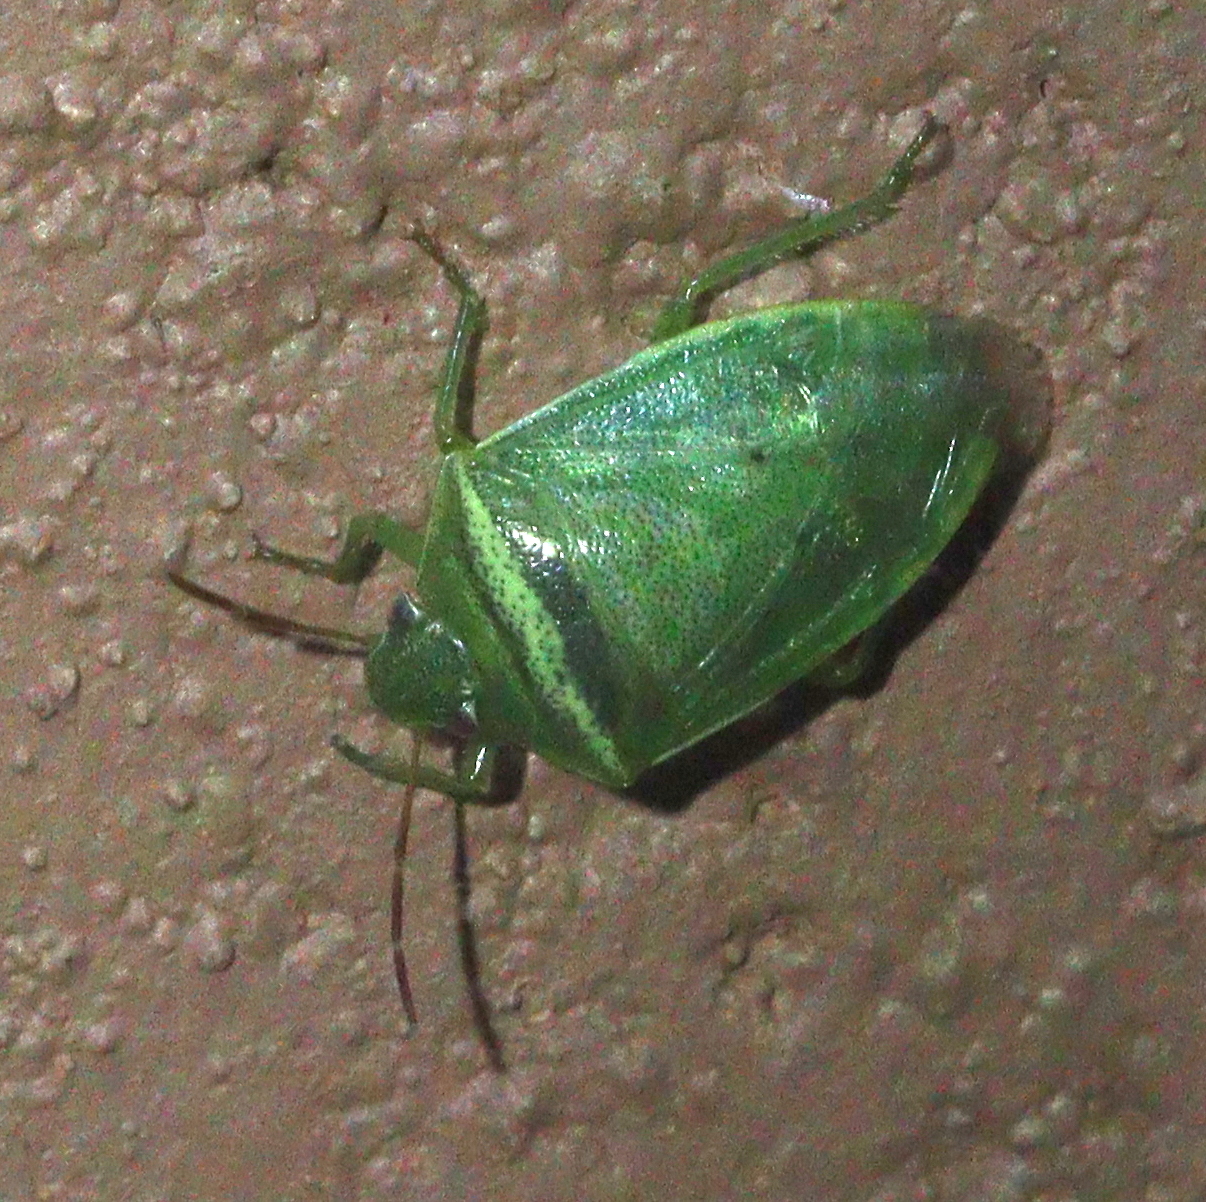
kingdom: Animalia
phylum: Arthropoda
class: Insecta
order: Hemiptera
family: Pentatomidae
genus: Piezodorus
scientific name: Piezodorus hybneri
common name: Stink bug
